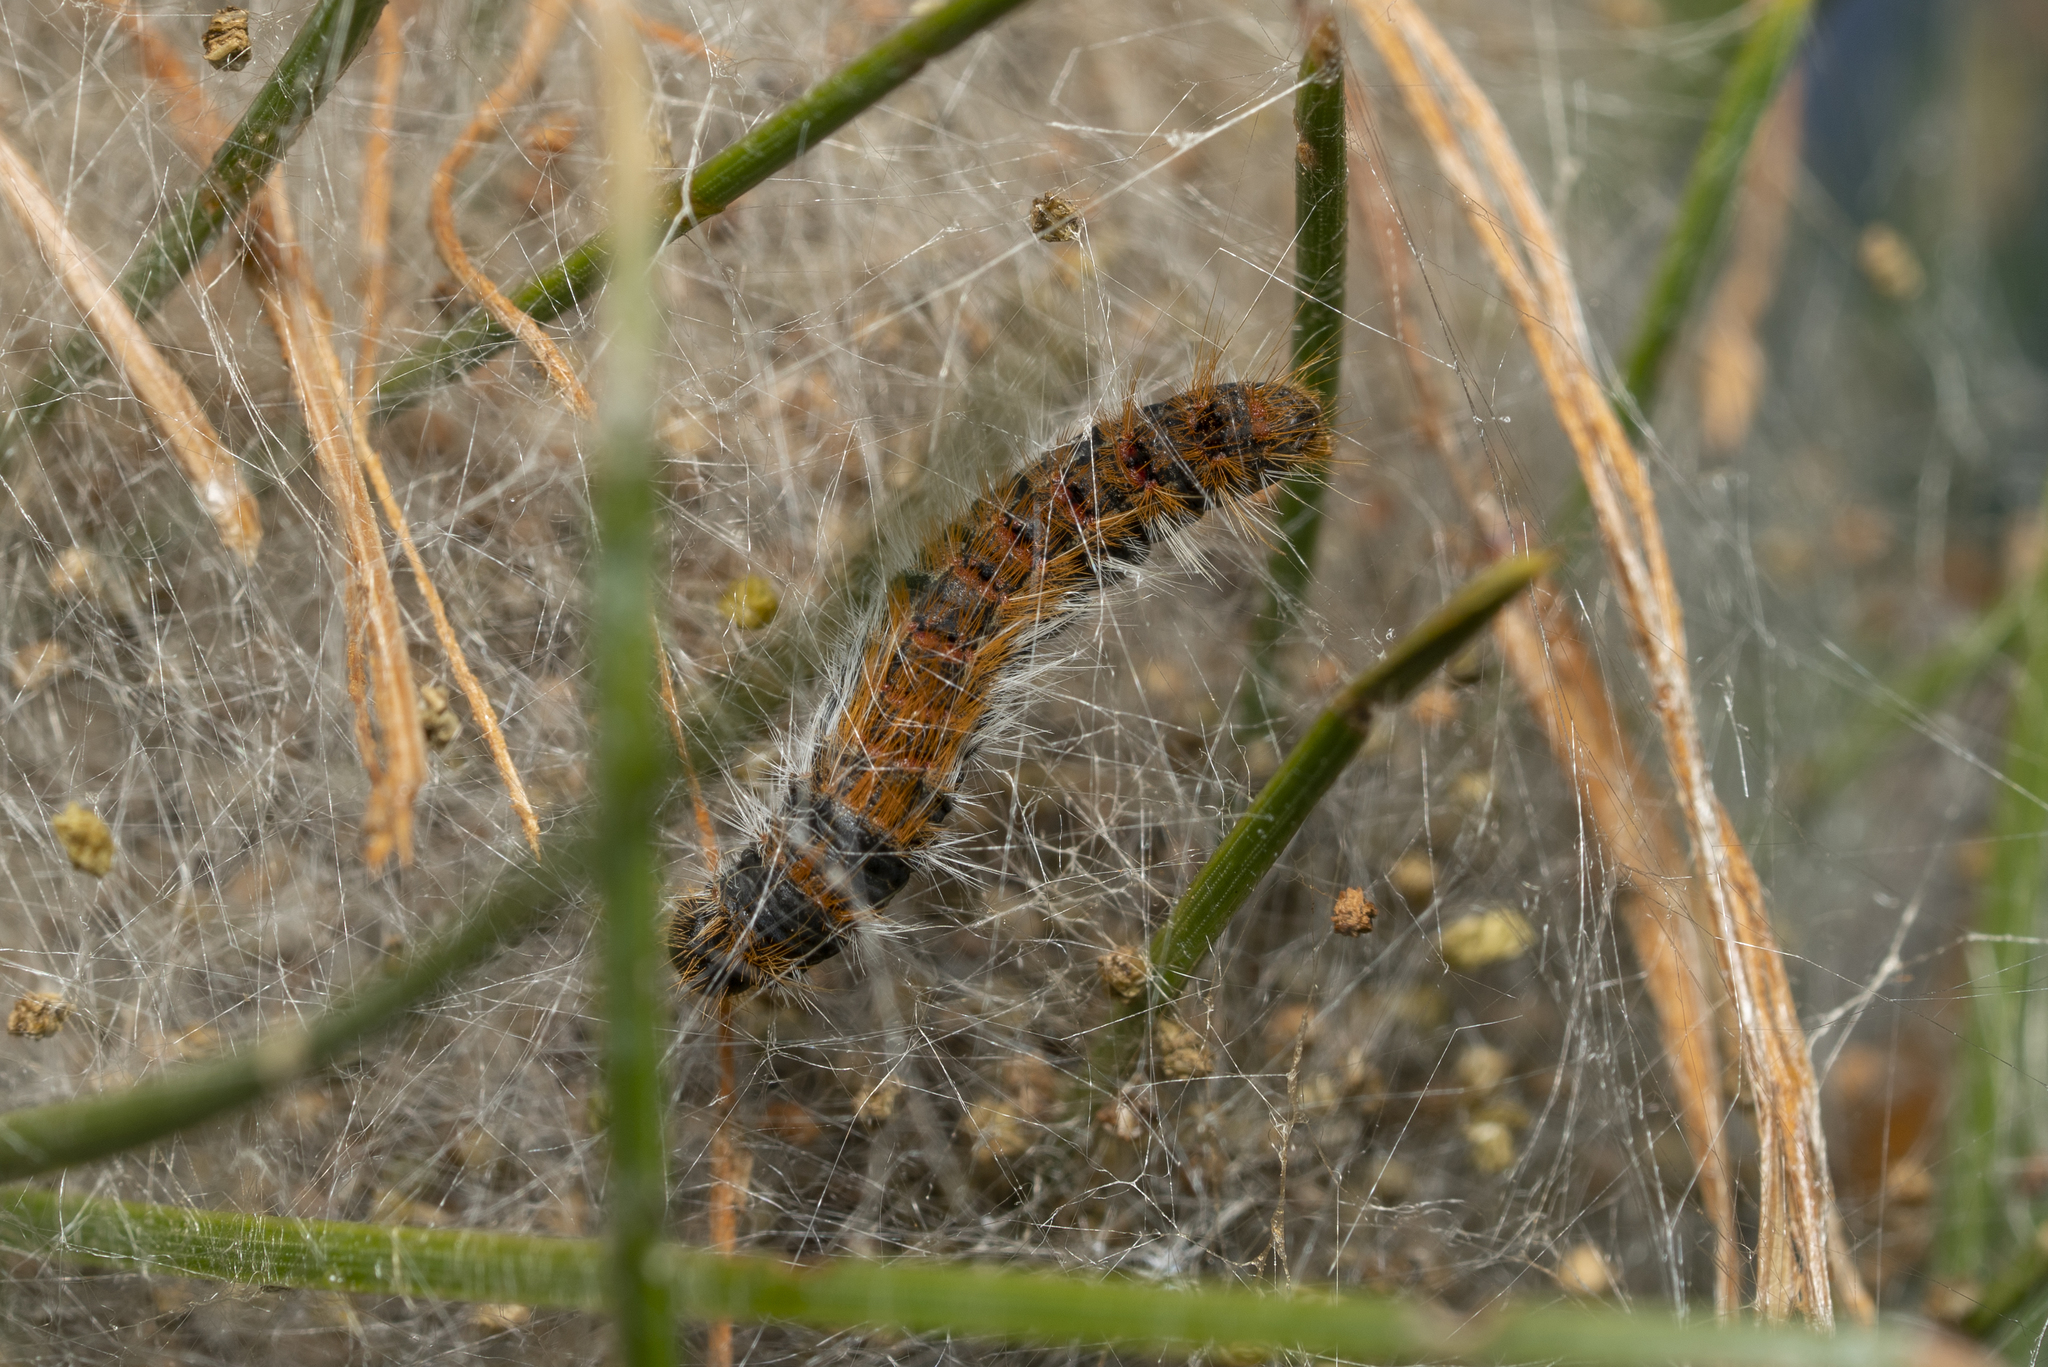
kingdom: Animalia
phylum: Arthropoda
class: Insecta
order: Lepidoptera
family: Notodontidae
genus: Thaumetopoea
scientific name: Thaumetopoea wilkinsoni
